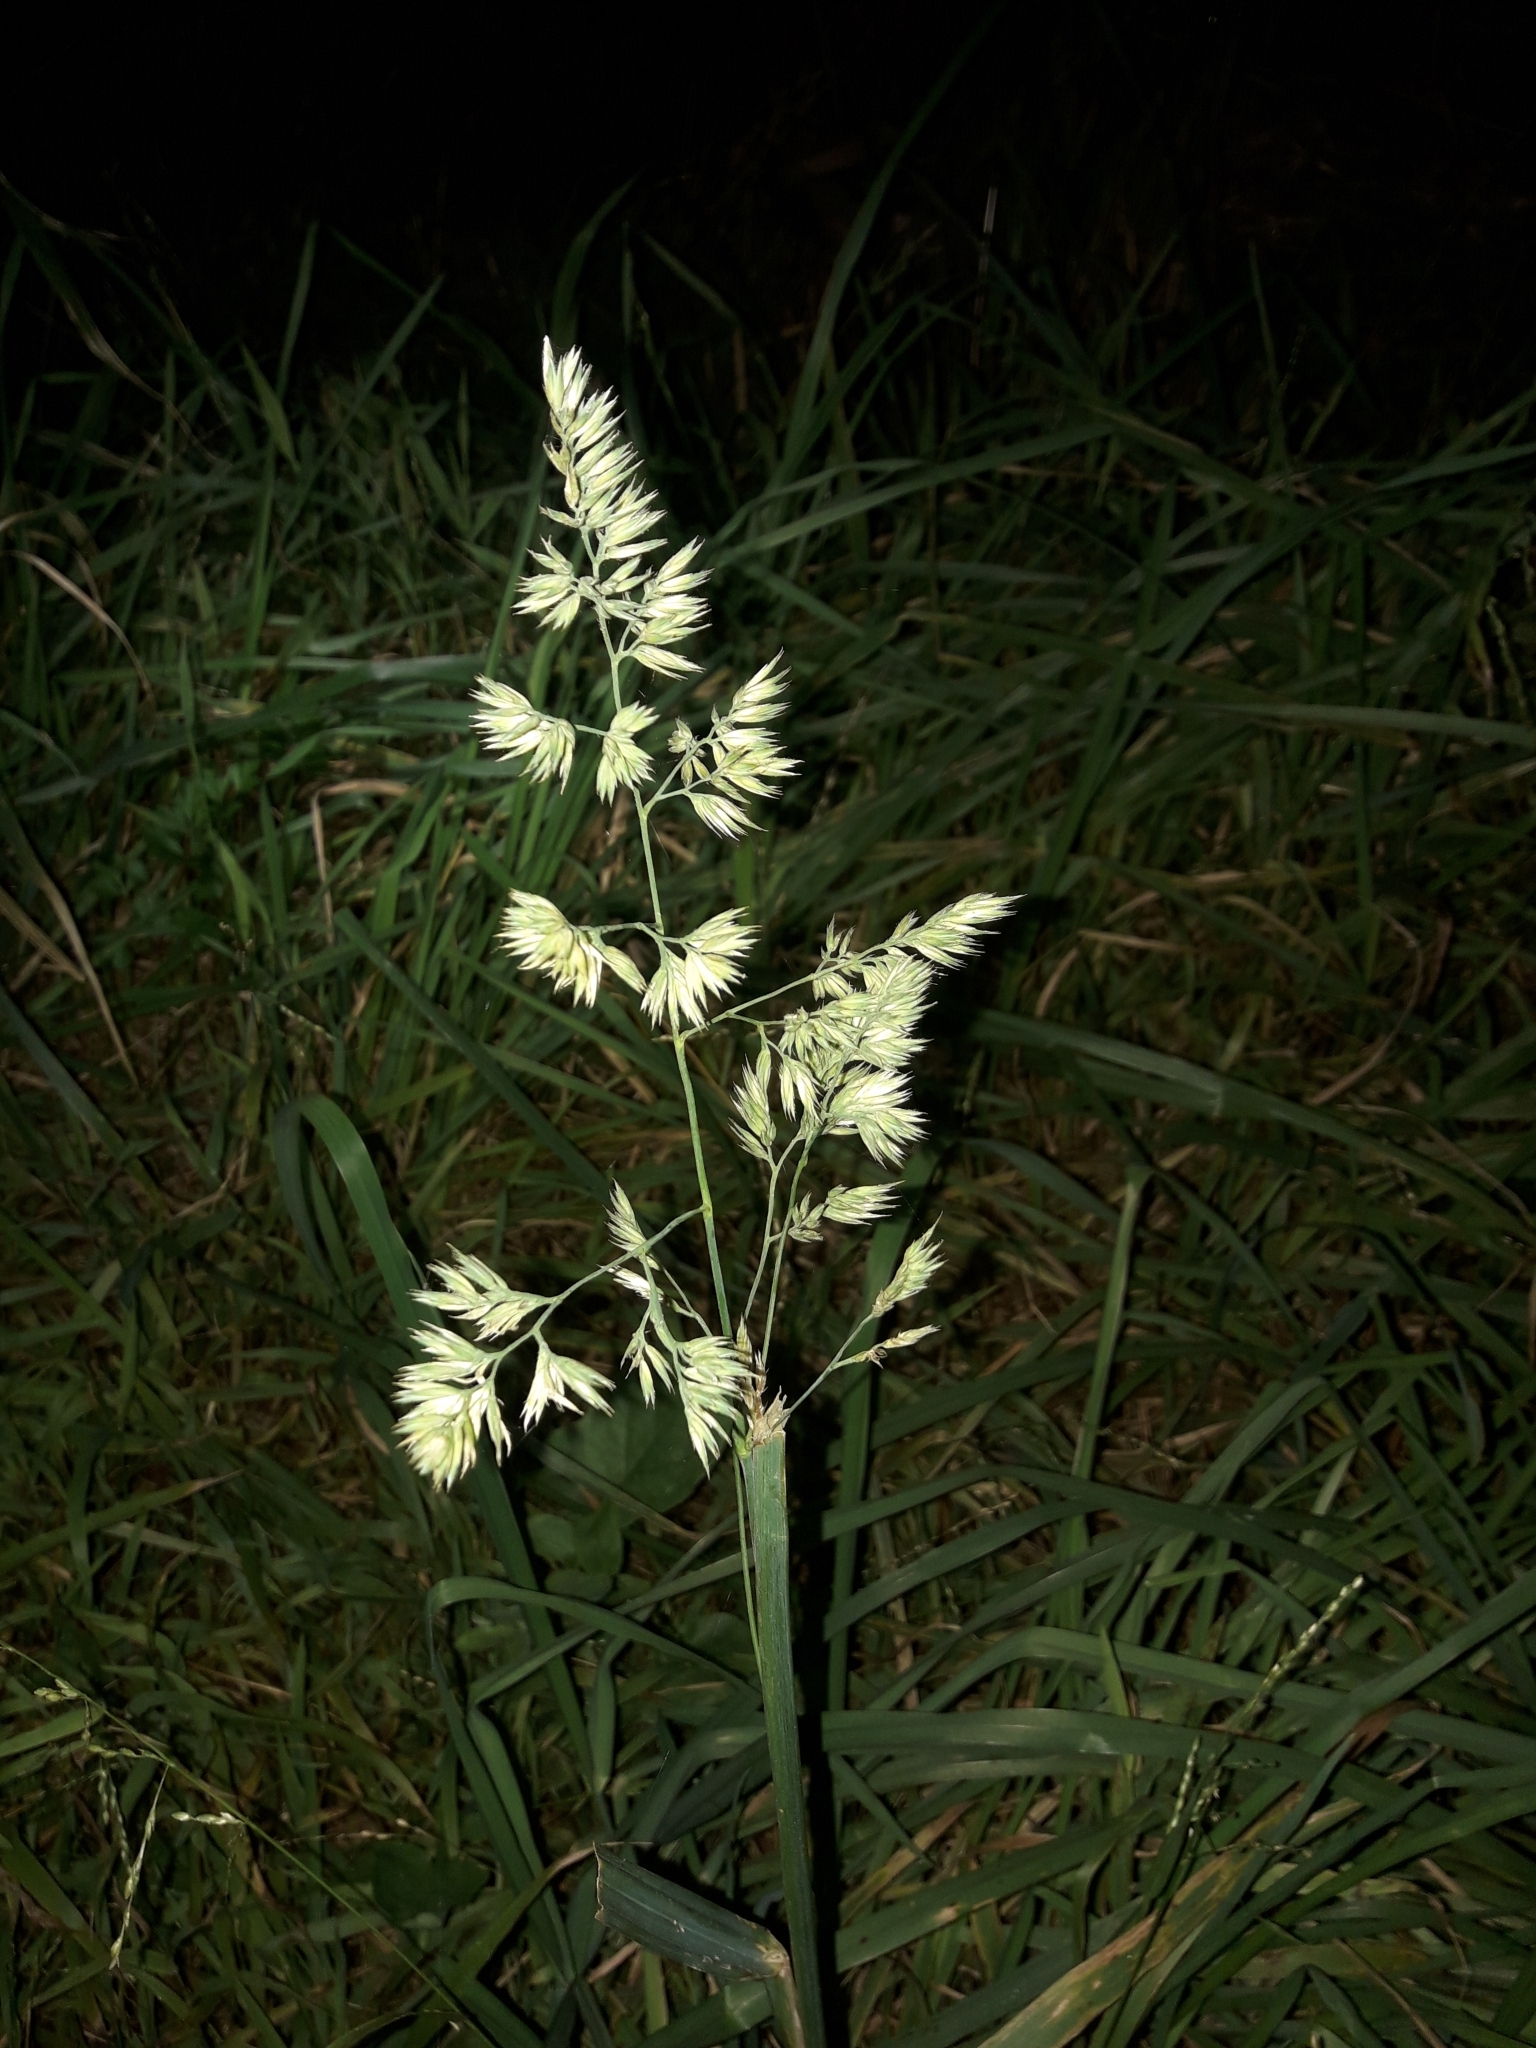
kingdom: Plantae
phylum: Tracheophyta
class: Liliopsida
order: Poales
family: Poaceae
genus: Dactylis
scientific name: Dactylis glomerata
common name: Orchardgrass
